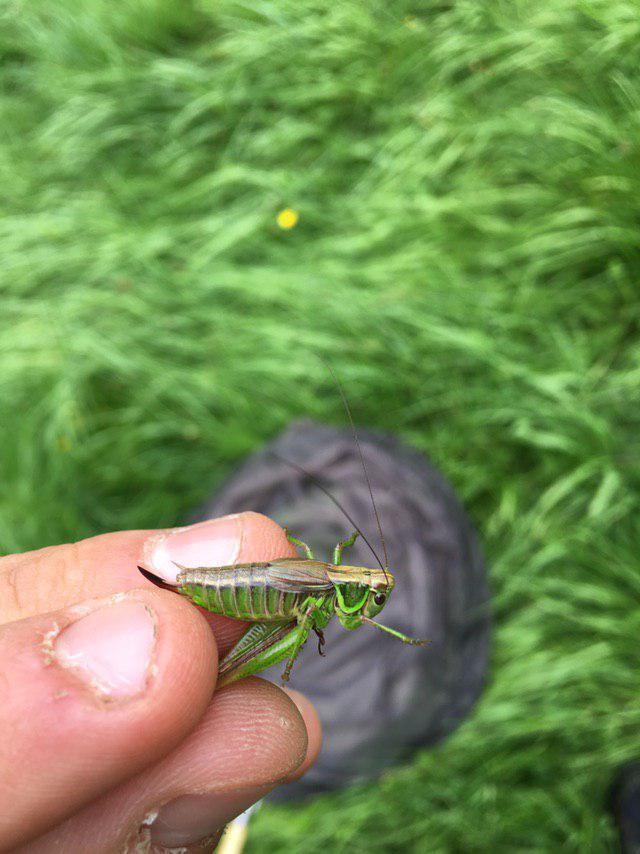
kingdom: Animalia
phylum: Arthropoda
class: Insecta
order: Orthoptera
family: Tettigoniidae
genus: Roeseliana
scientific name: Roeseliana roeselii
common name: Roesel's bush cricket
